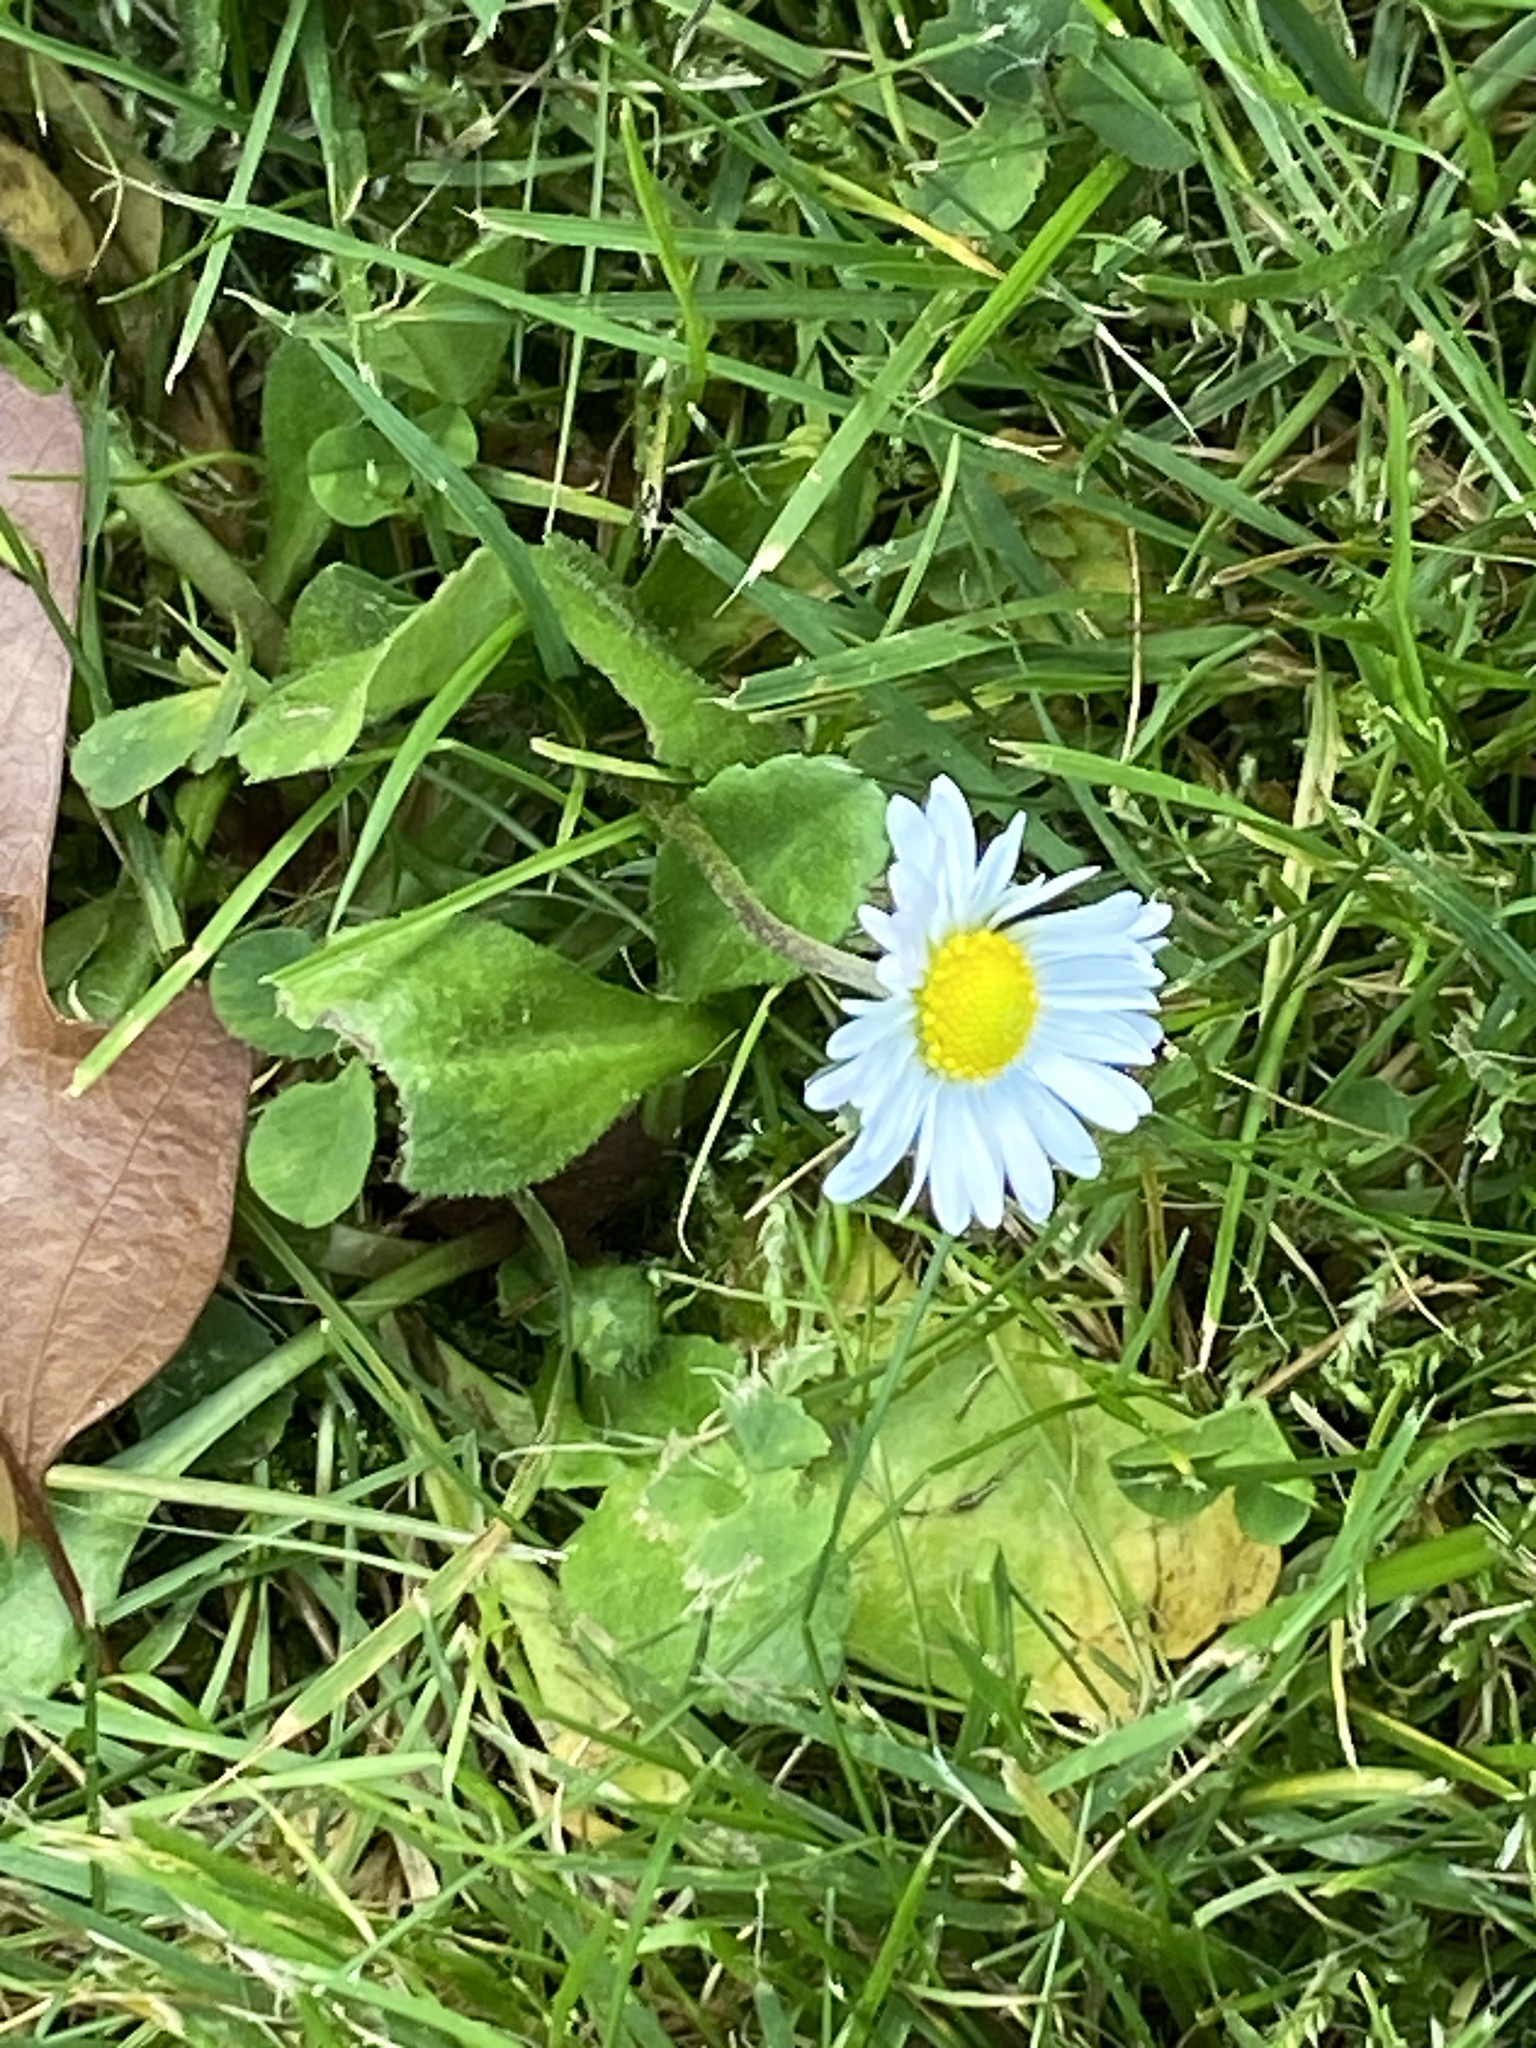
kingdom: Plantae
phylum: Tracheophyta
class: Magnoliopsida
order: Asterales
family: Asteraceae
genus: Bellis
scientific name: Bellis perennis
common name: Lawndaisy
